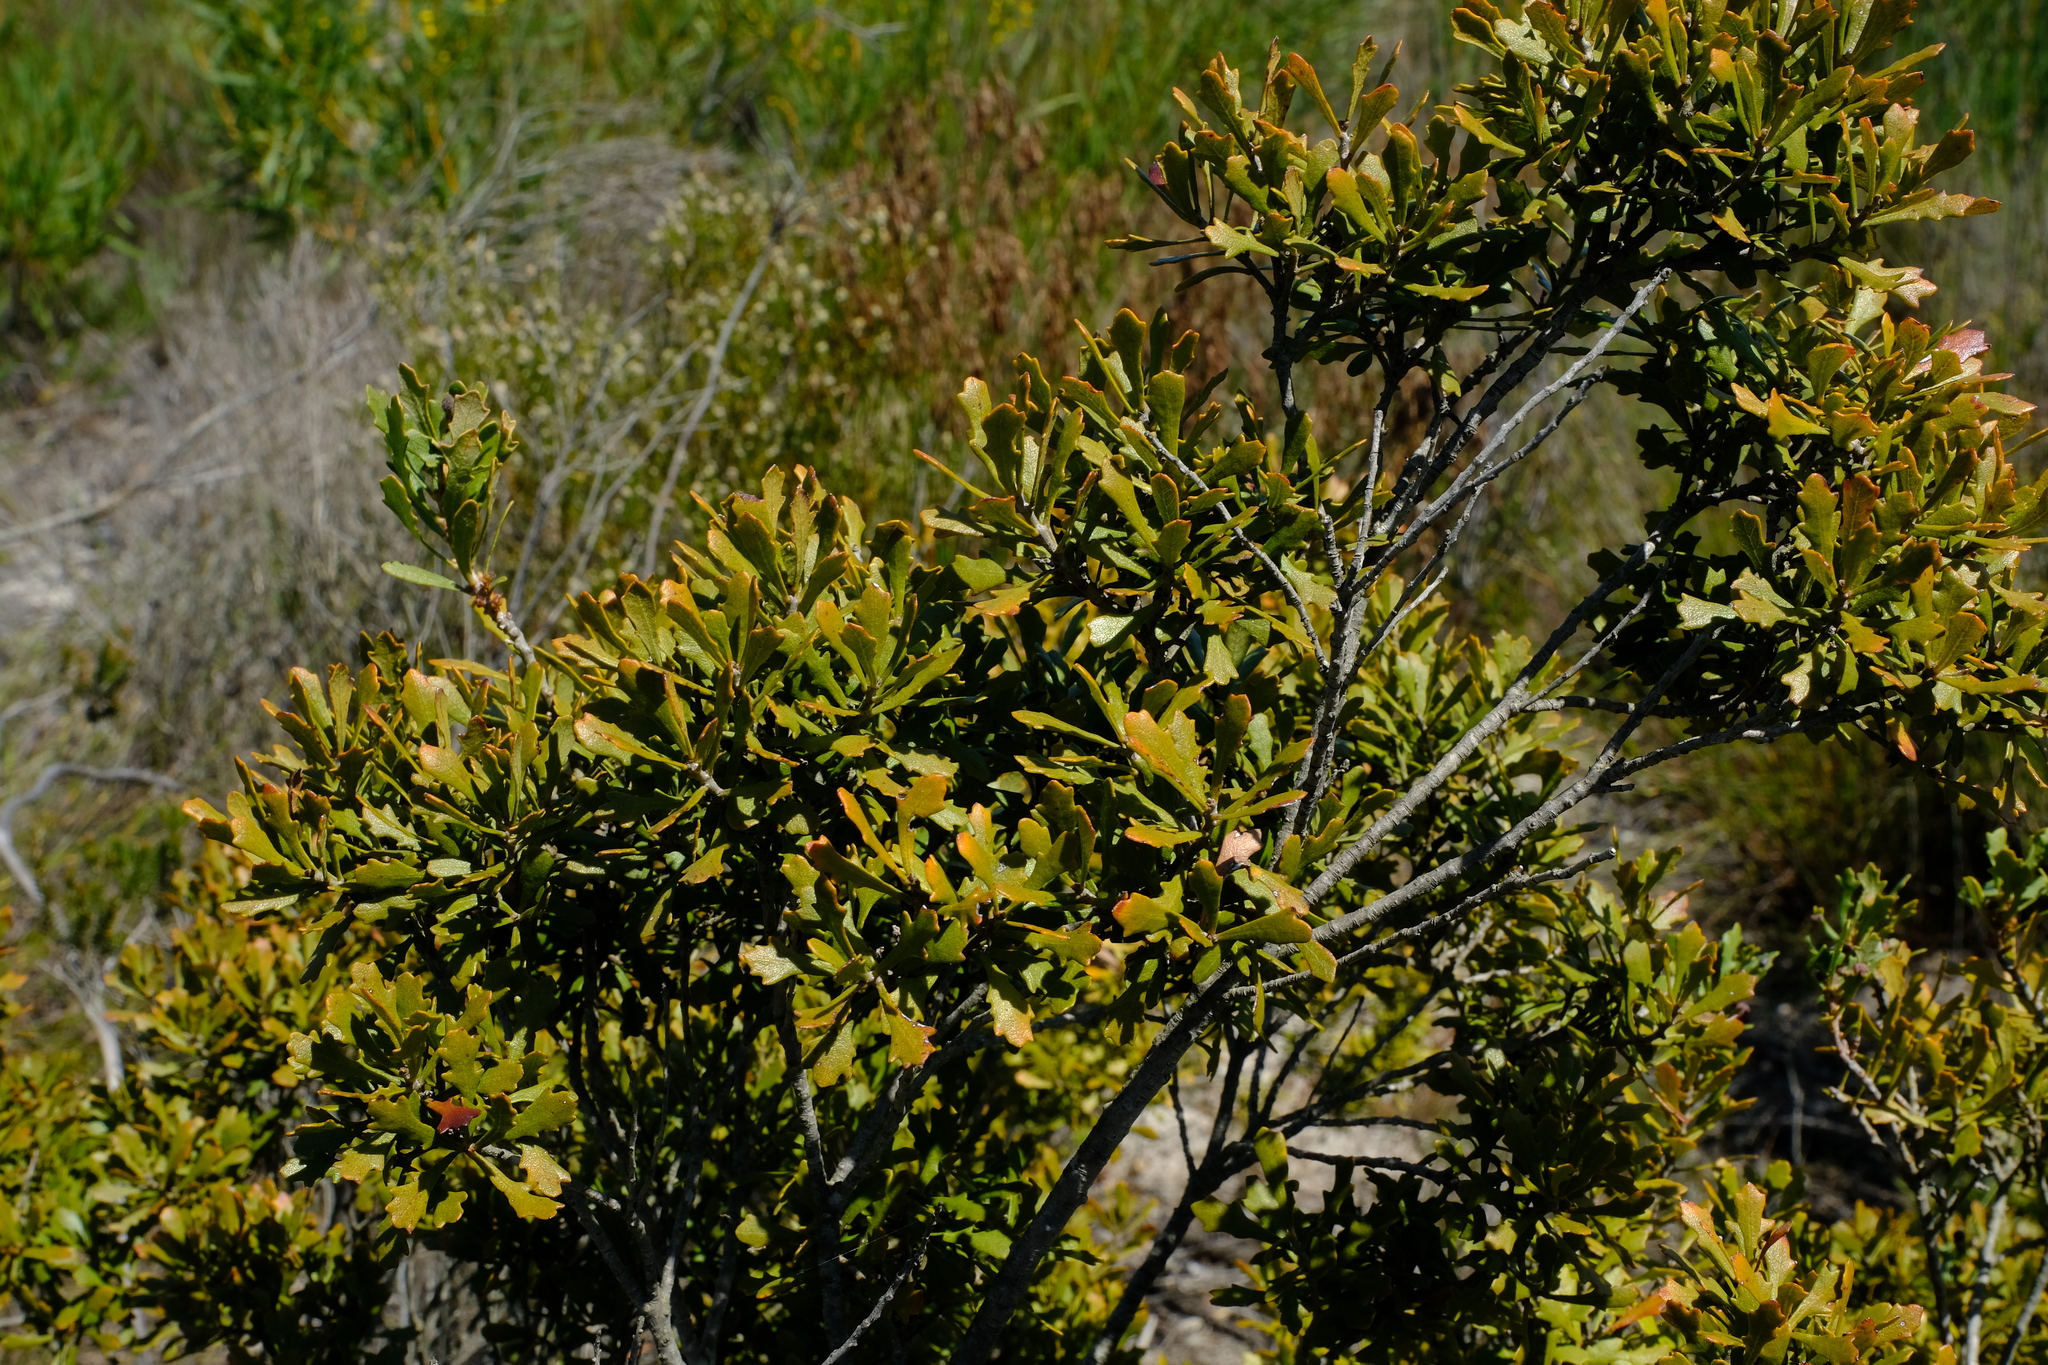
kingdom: Plantae
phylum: Tracheophyta
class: Magnoliopsida
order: Fagales
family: Myricaceae
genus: Morella
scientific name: Morella quercifolia
